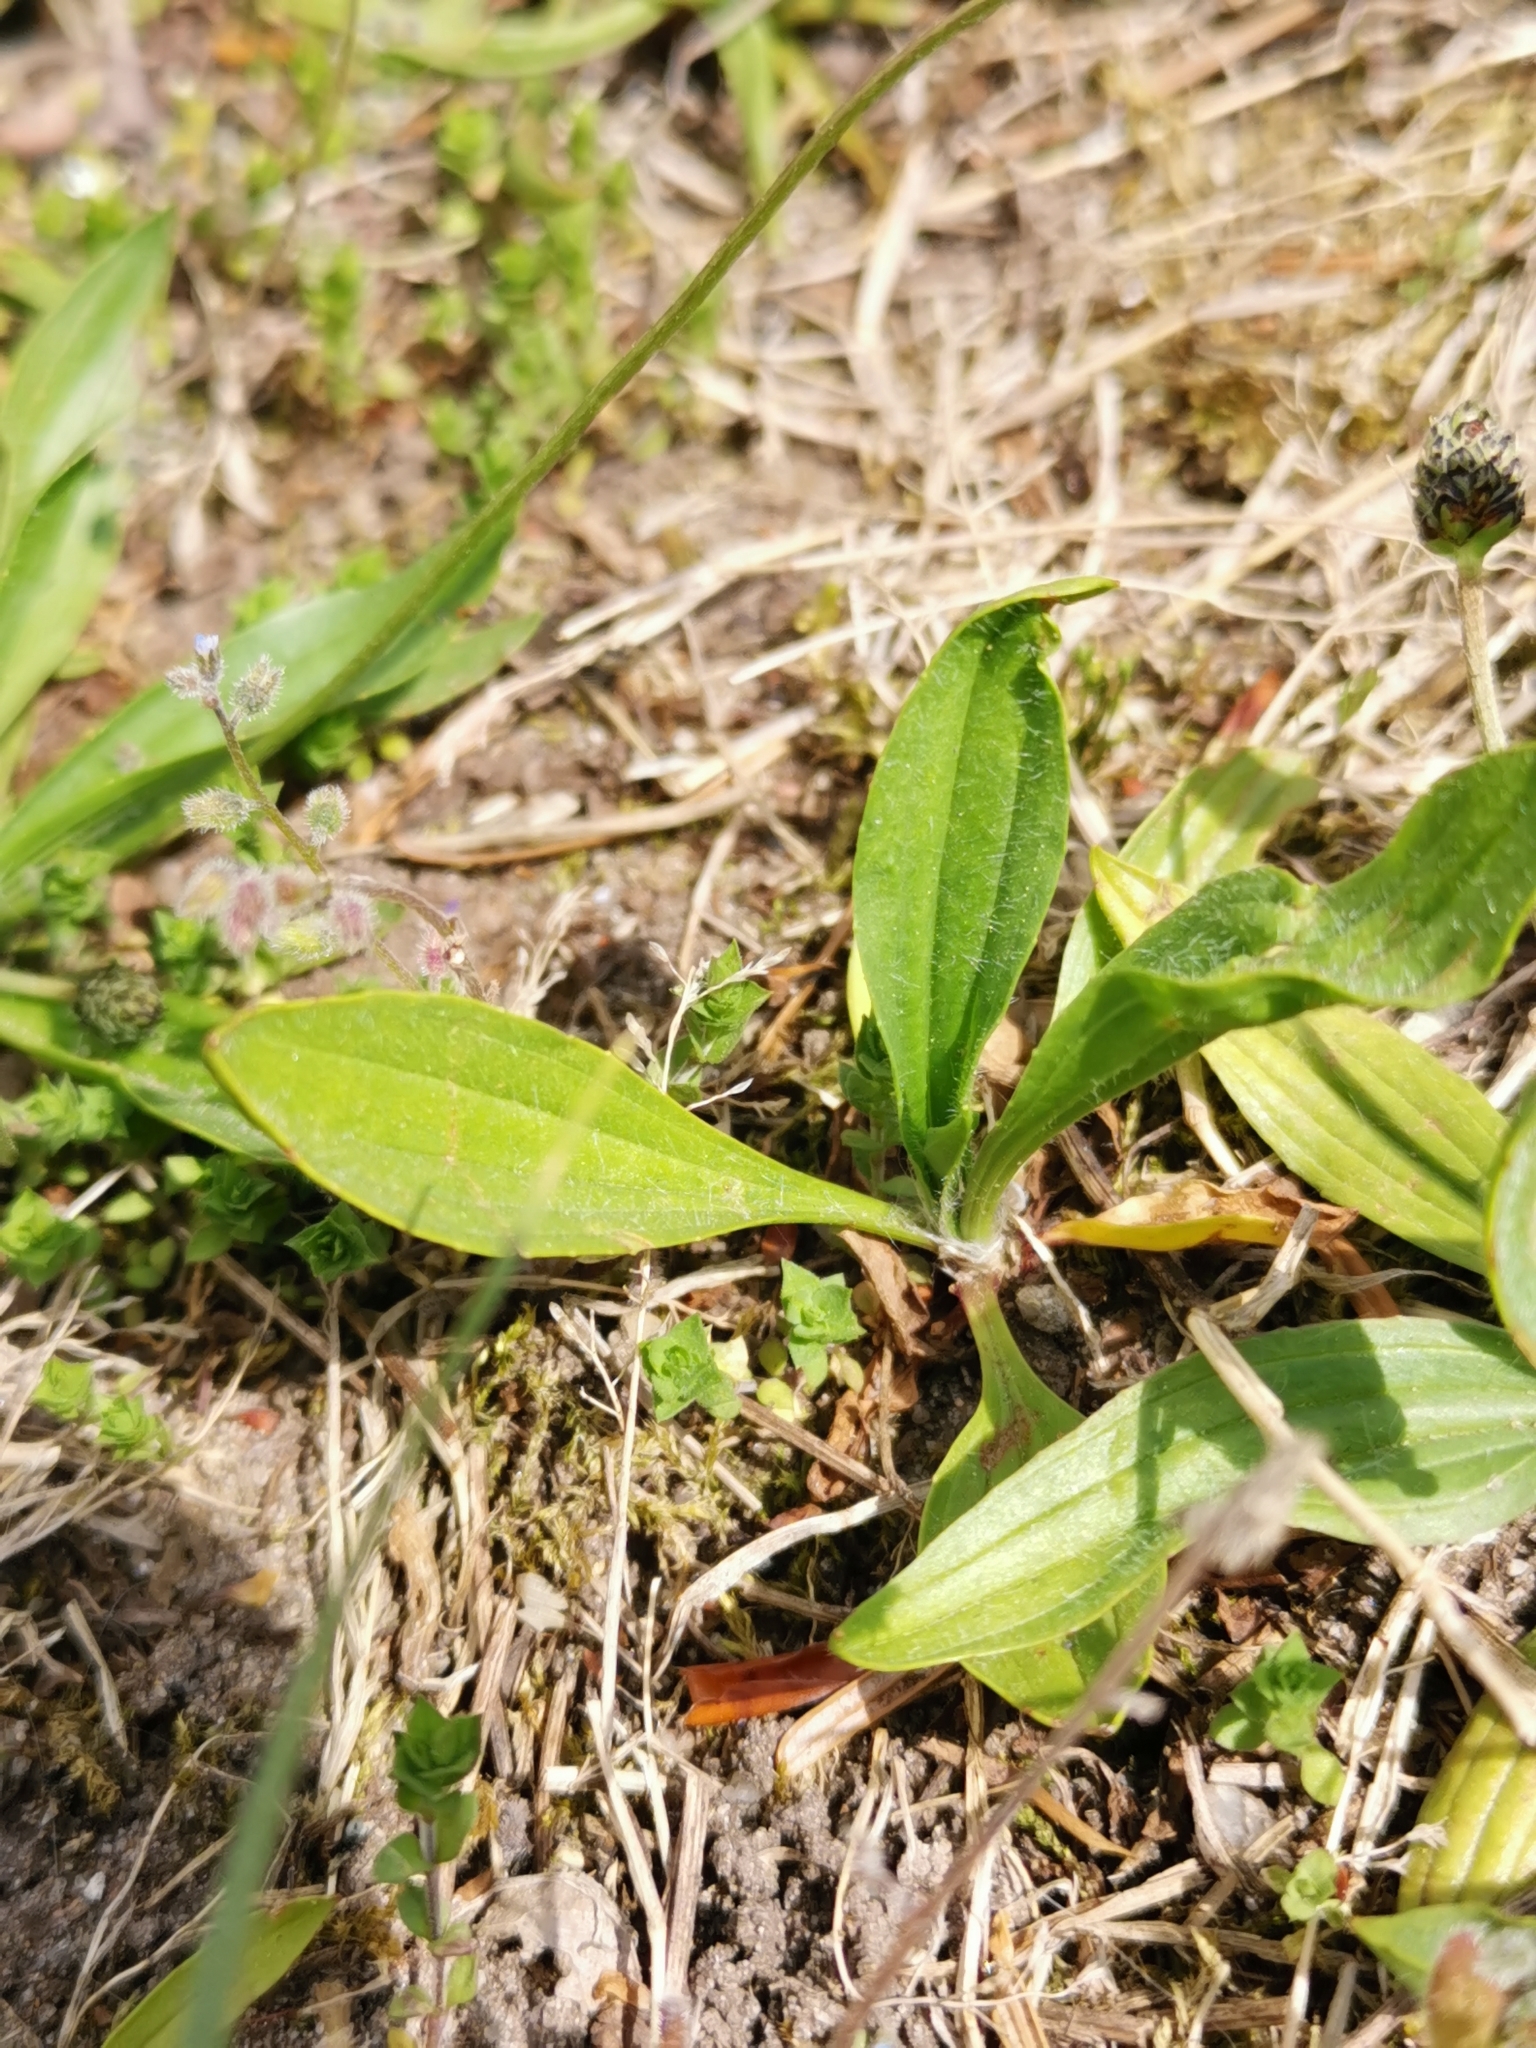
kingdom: Plantae
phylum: Tracheophyta
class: Magnoliopsida
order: Lamiales
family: Plantaginaceae
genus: Plantago
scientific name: Plantago lanceolata
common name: Ribwort plantain
